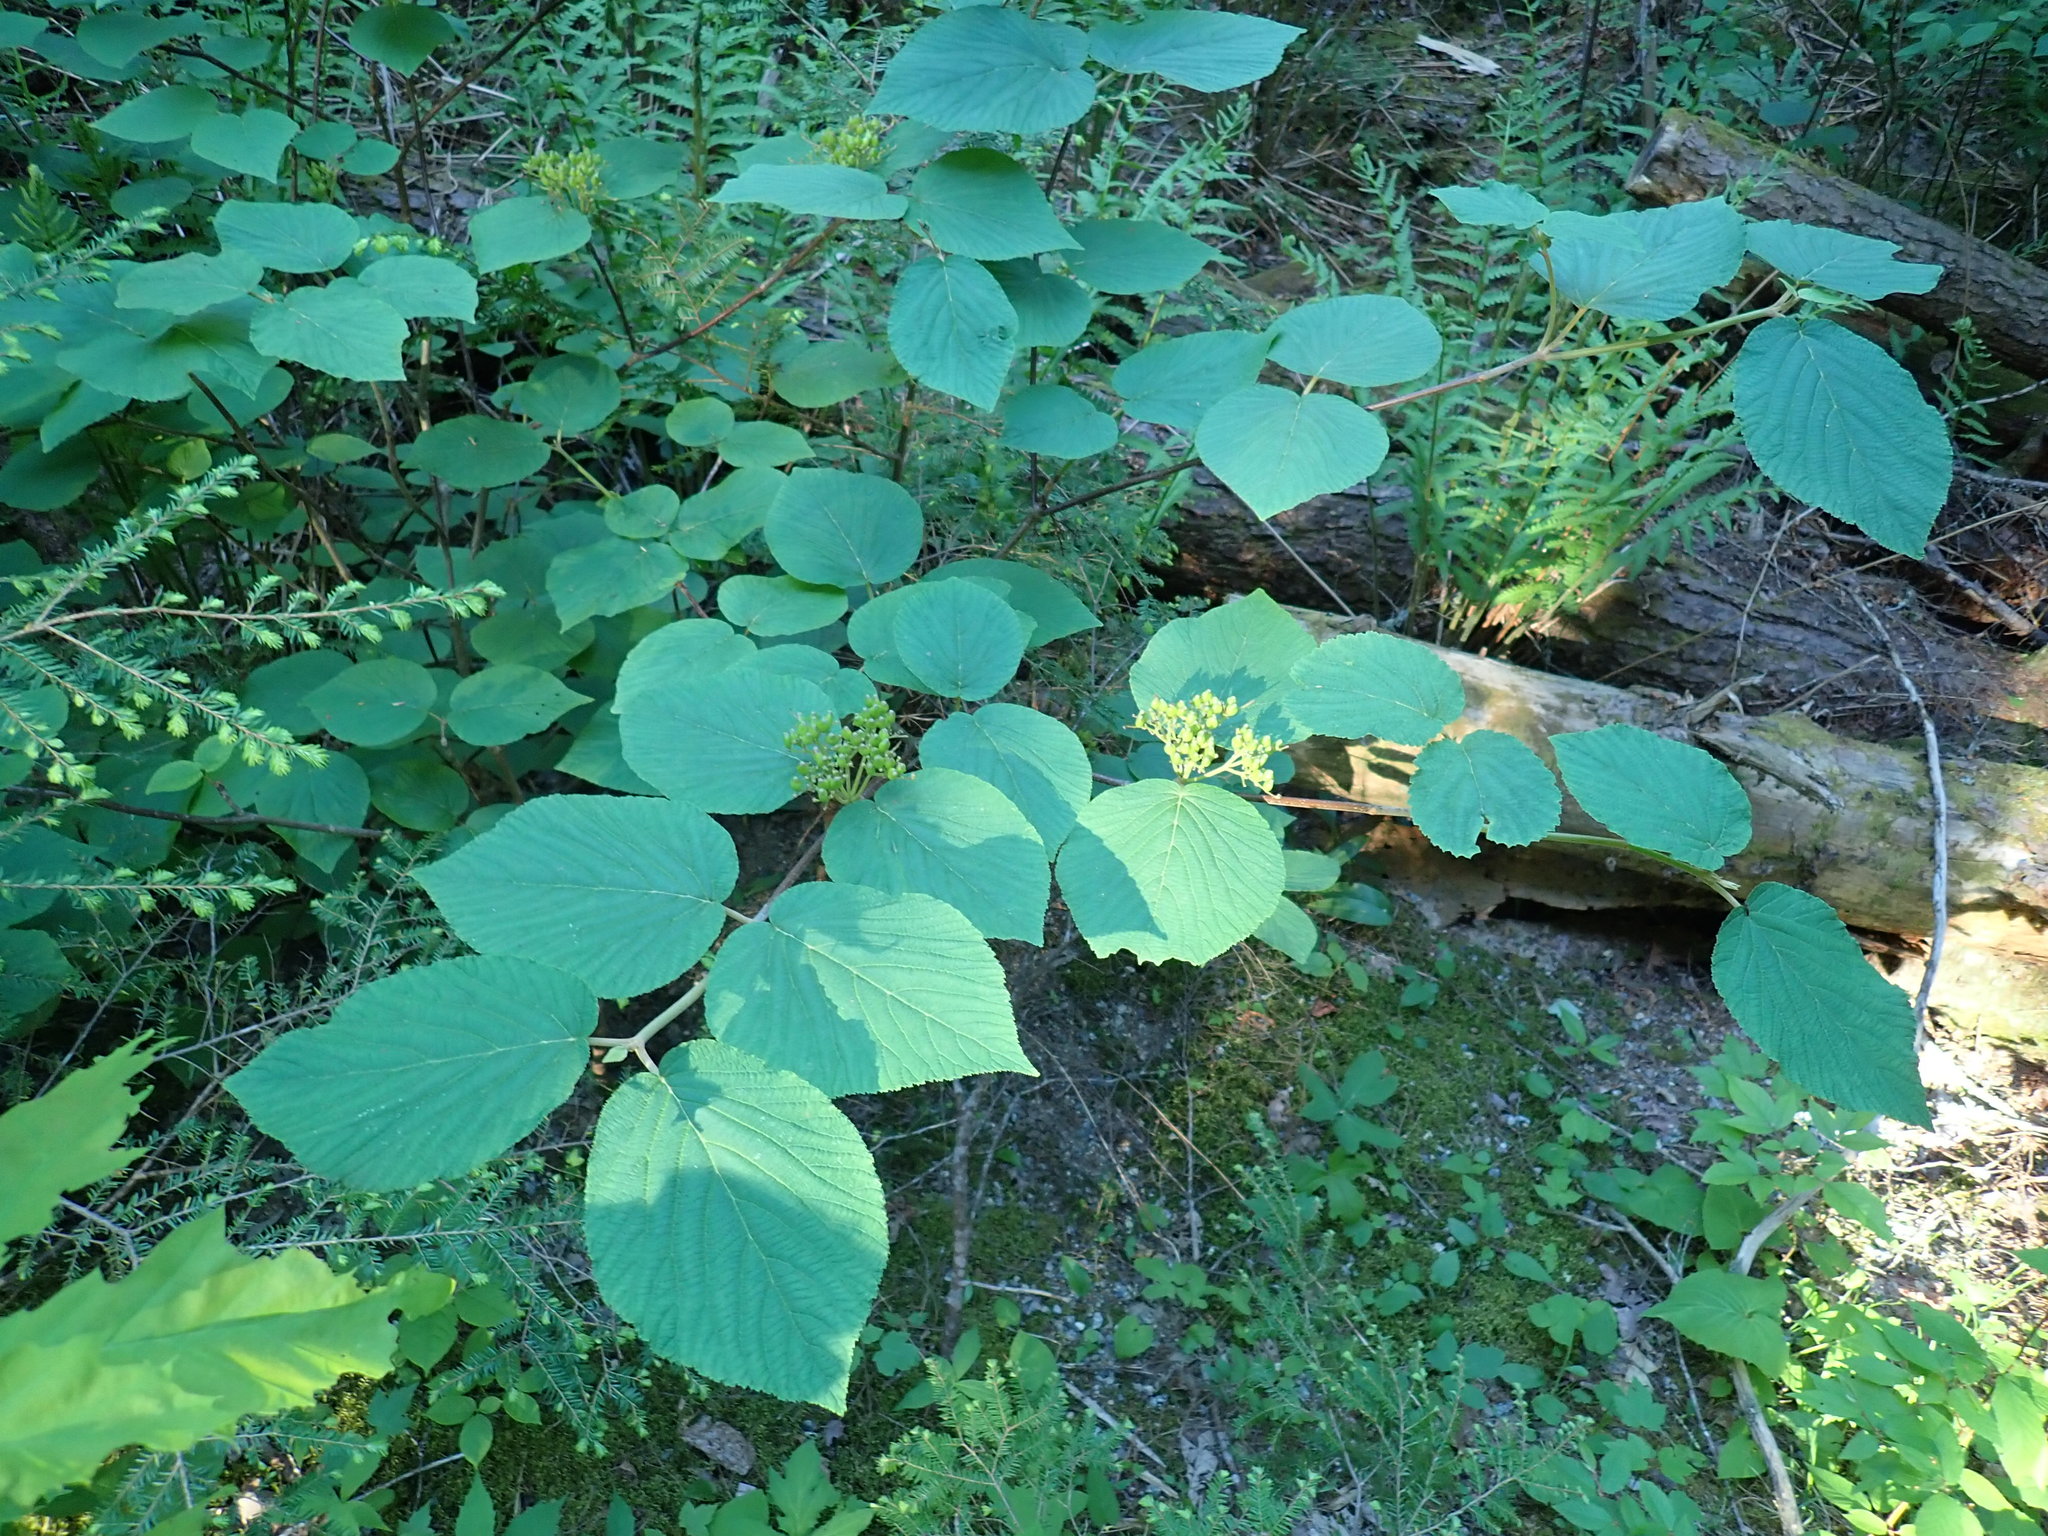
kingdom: Plantae
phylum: Tracheophyta
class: Magnoliopsida
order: Dipsacales
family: Viburnaceae
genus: Viburnum
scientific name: Viburnum lantanoides
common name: Hobblebush
